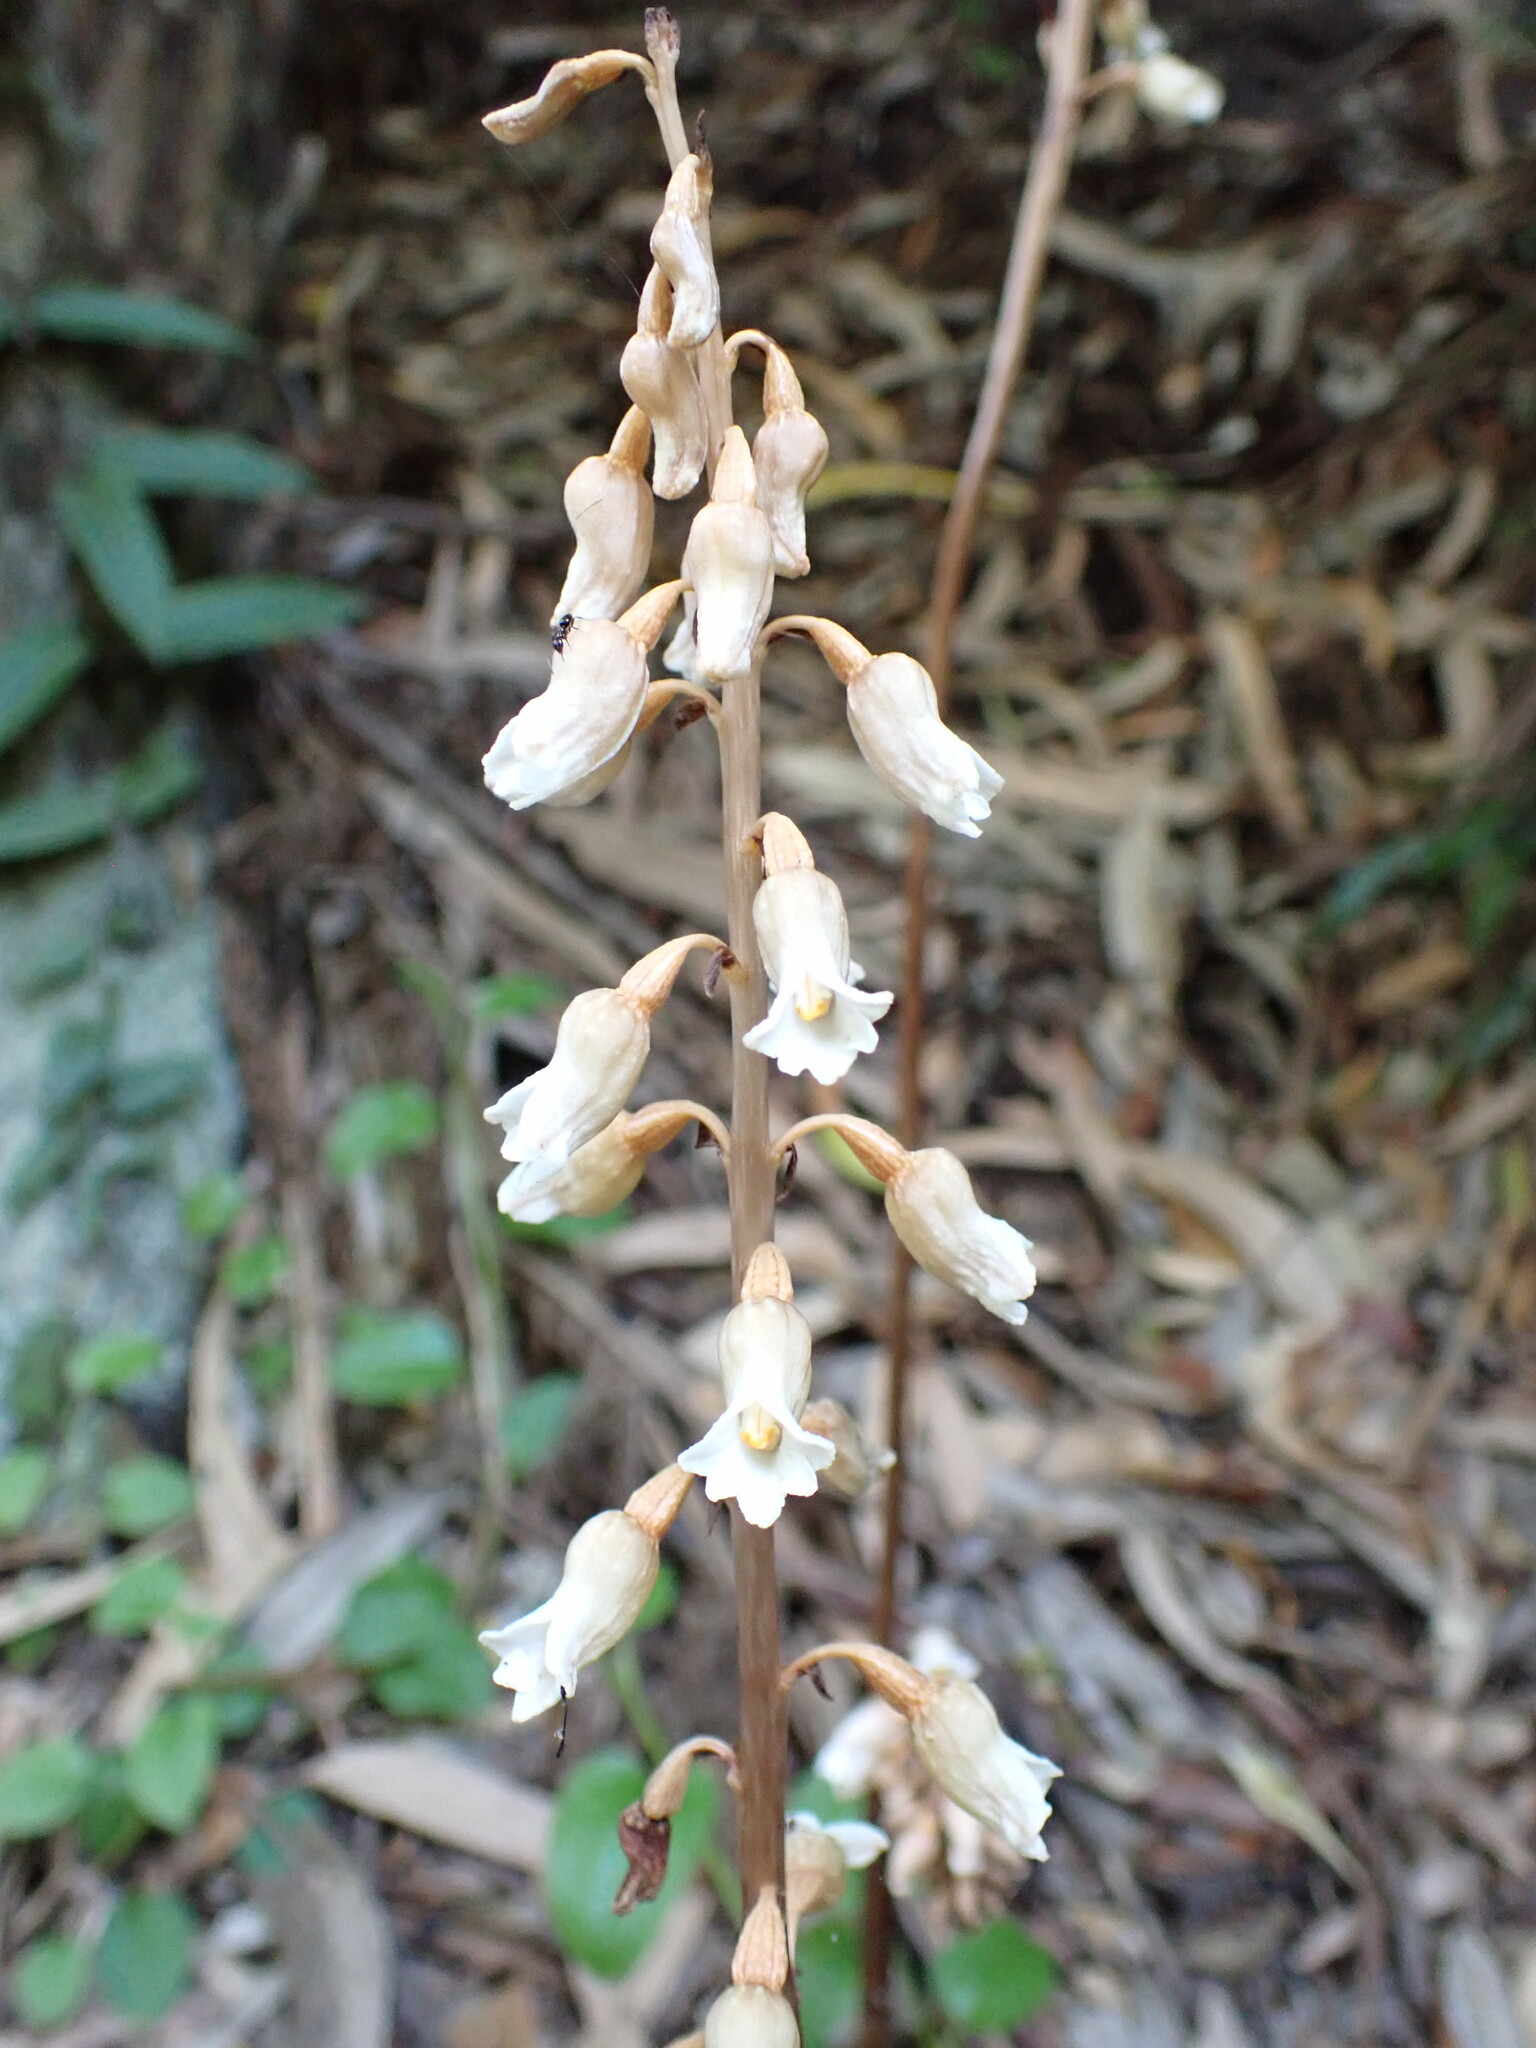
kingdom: Plantae
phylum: Tracheophyta
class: Liliopsida
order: Asparagales
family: Orchidaceae
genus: Gastrodia
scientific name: Gastrodia sesamoides
